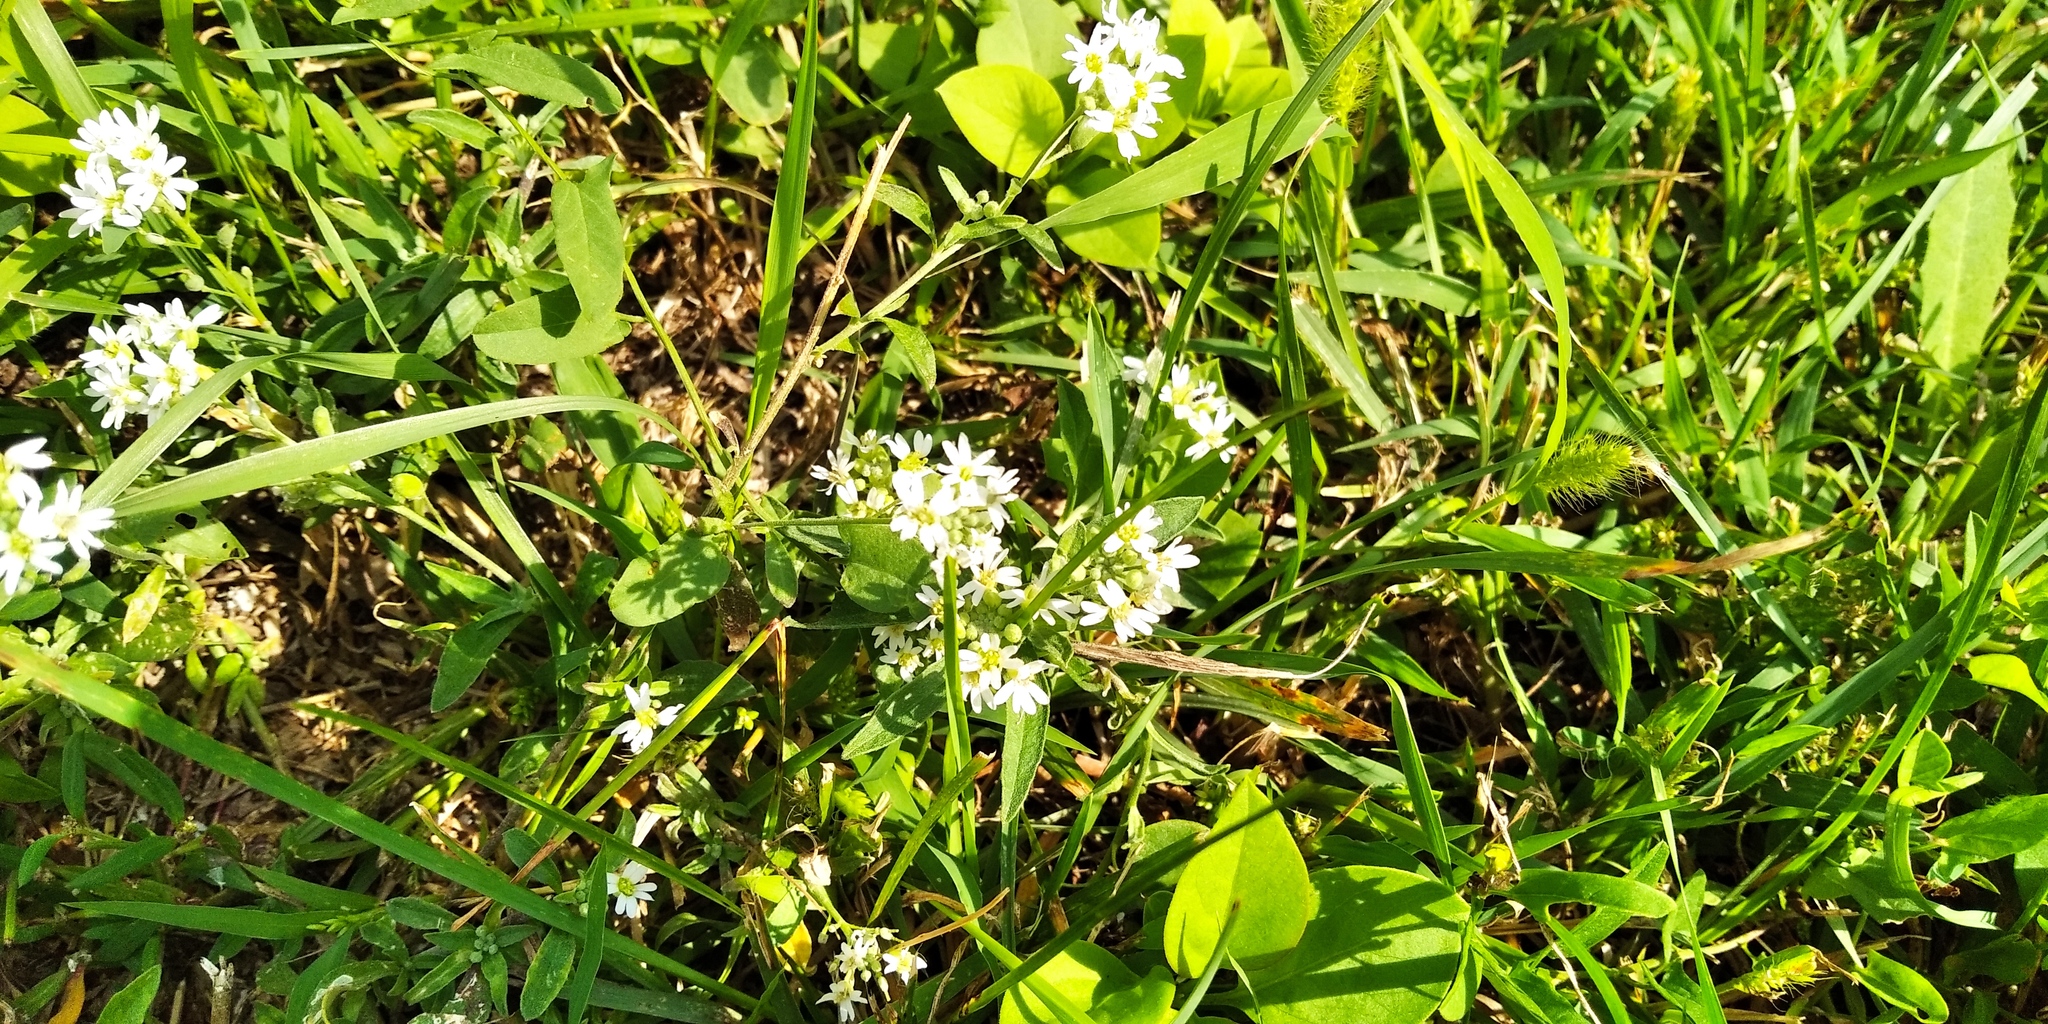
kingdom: Plantae
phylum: Tracheophyta
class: Magnoliopsida
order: Brassicales
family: Brassicaceae
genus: Berteroa
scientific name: Berteroa incana
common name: Hoary alison
